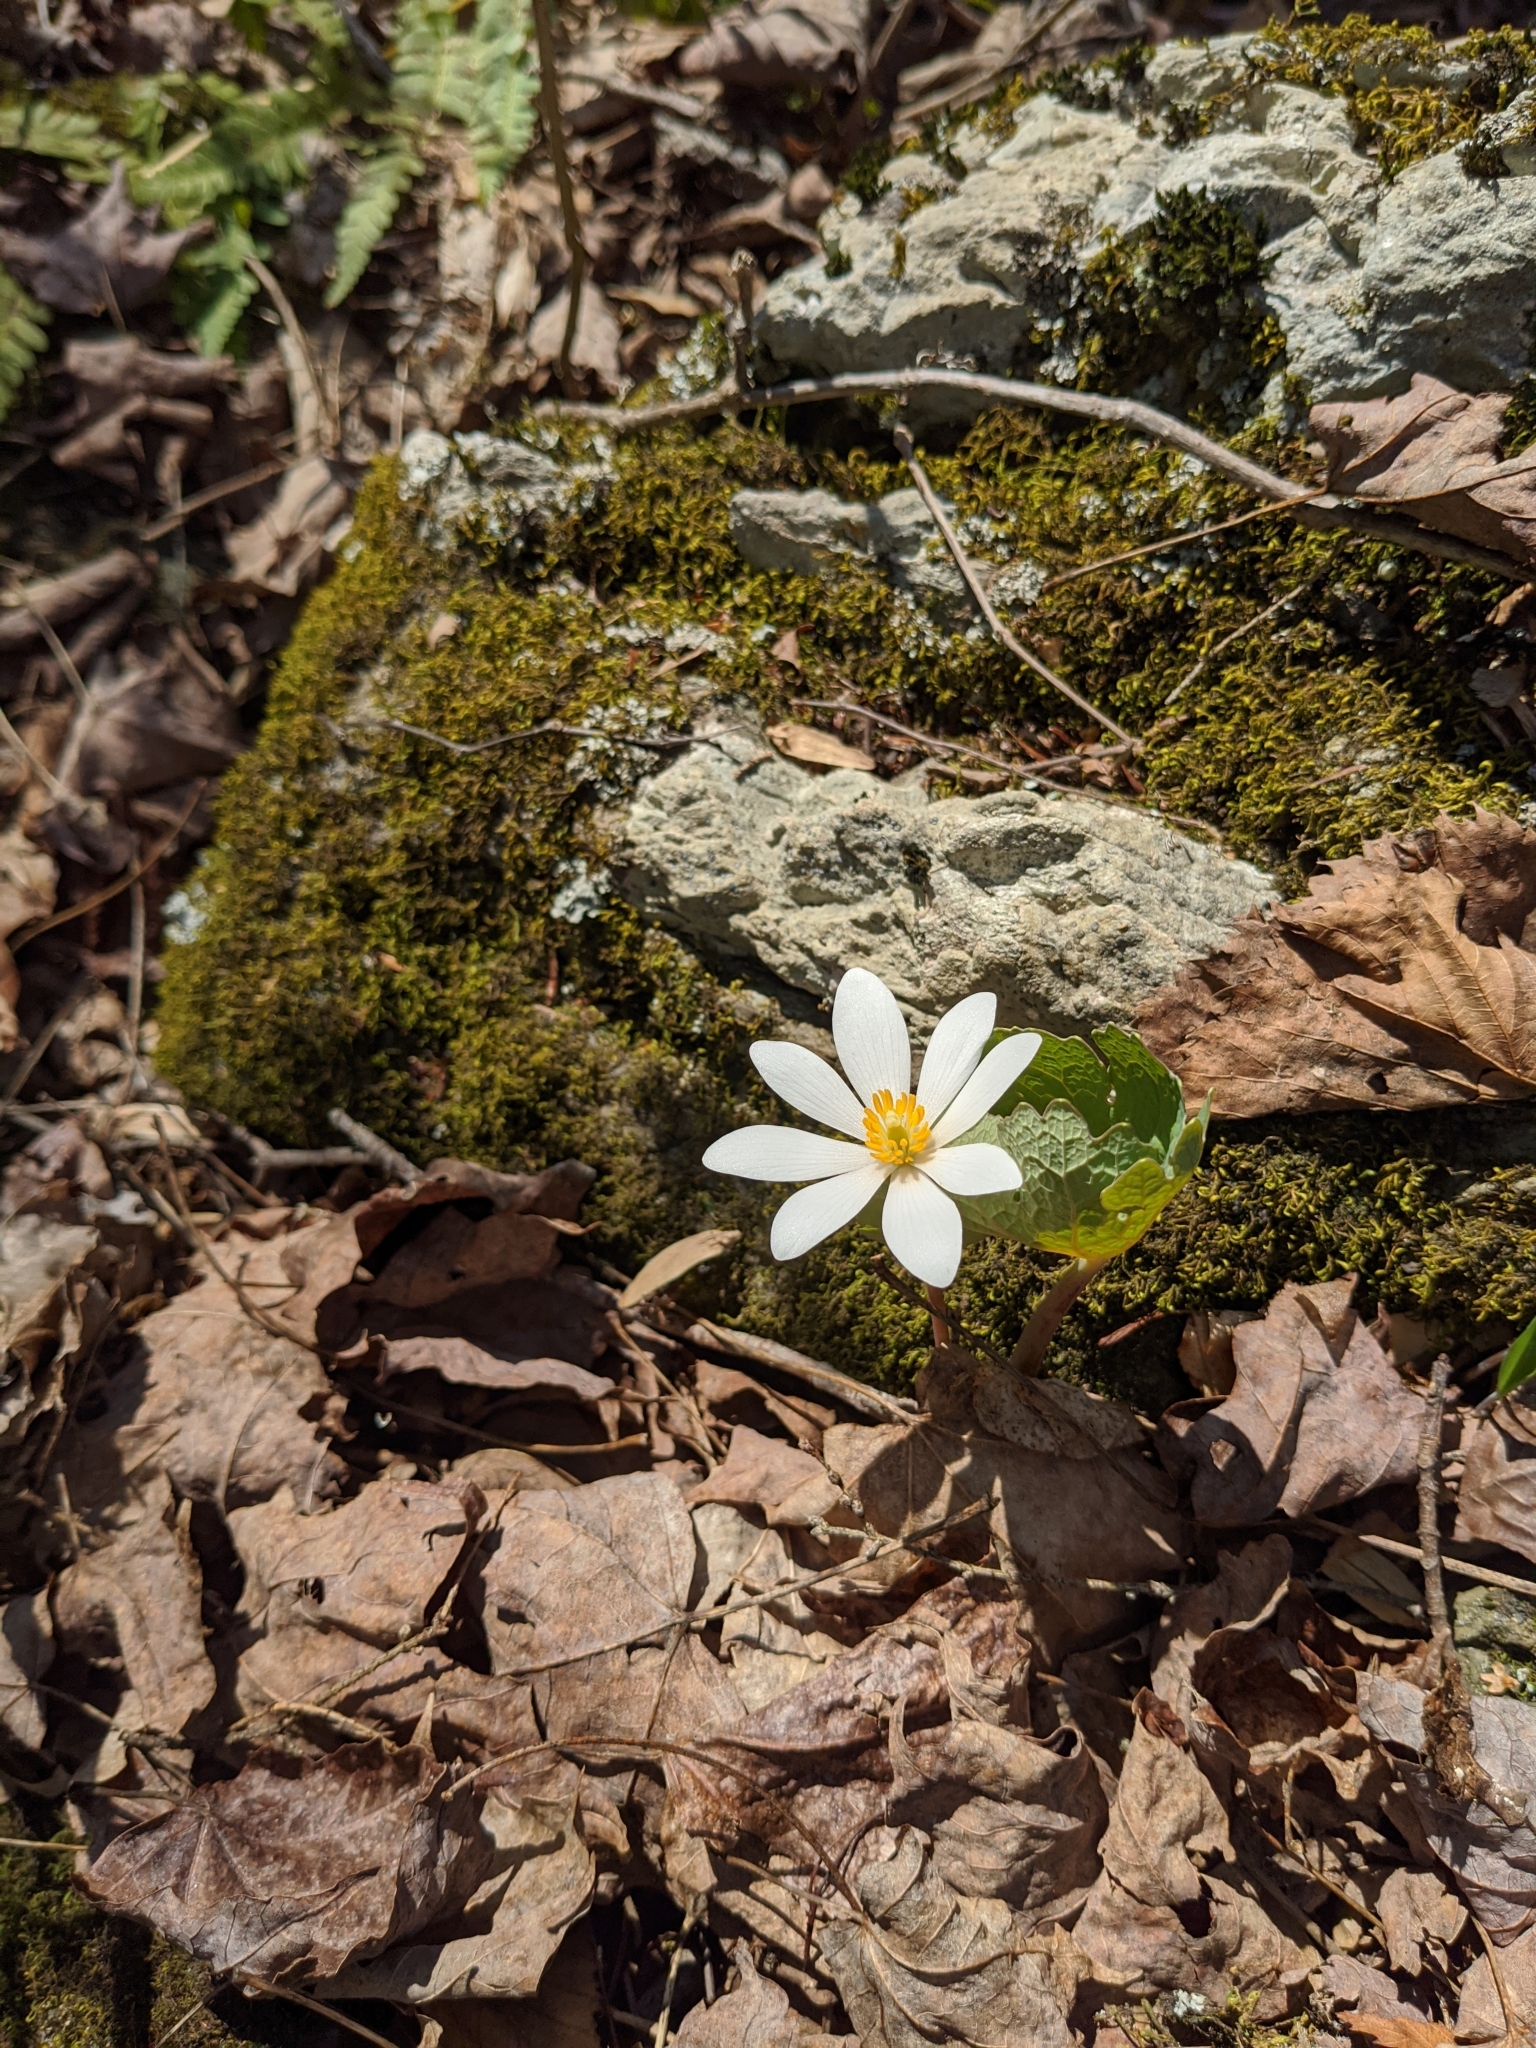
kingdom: Plantae
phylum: Tracheophyta
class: Magnoliopsida
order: Ranunculales
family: Papaveraceae
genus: Sanguinaria
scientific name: Sanguinaria canadensis
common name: Bloodroot
